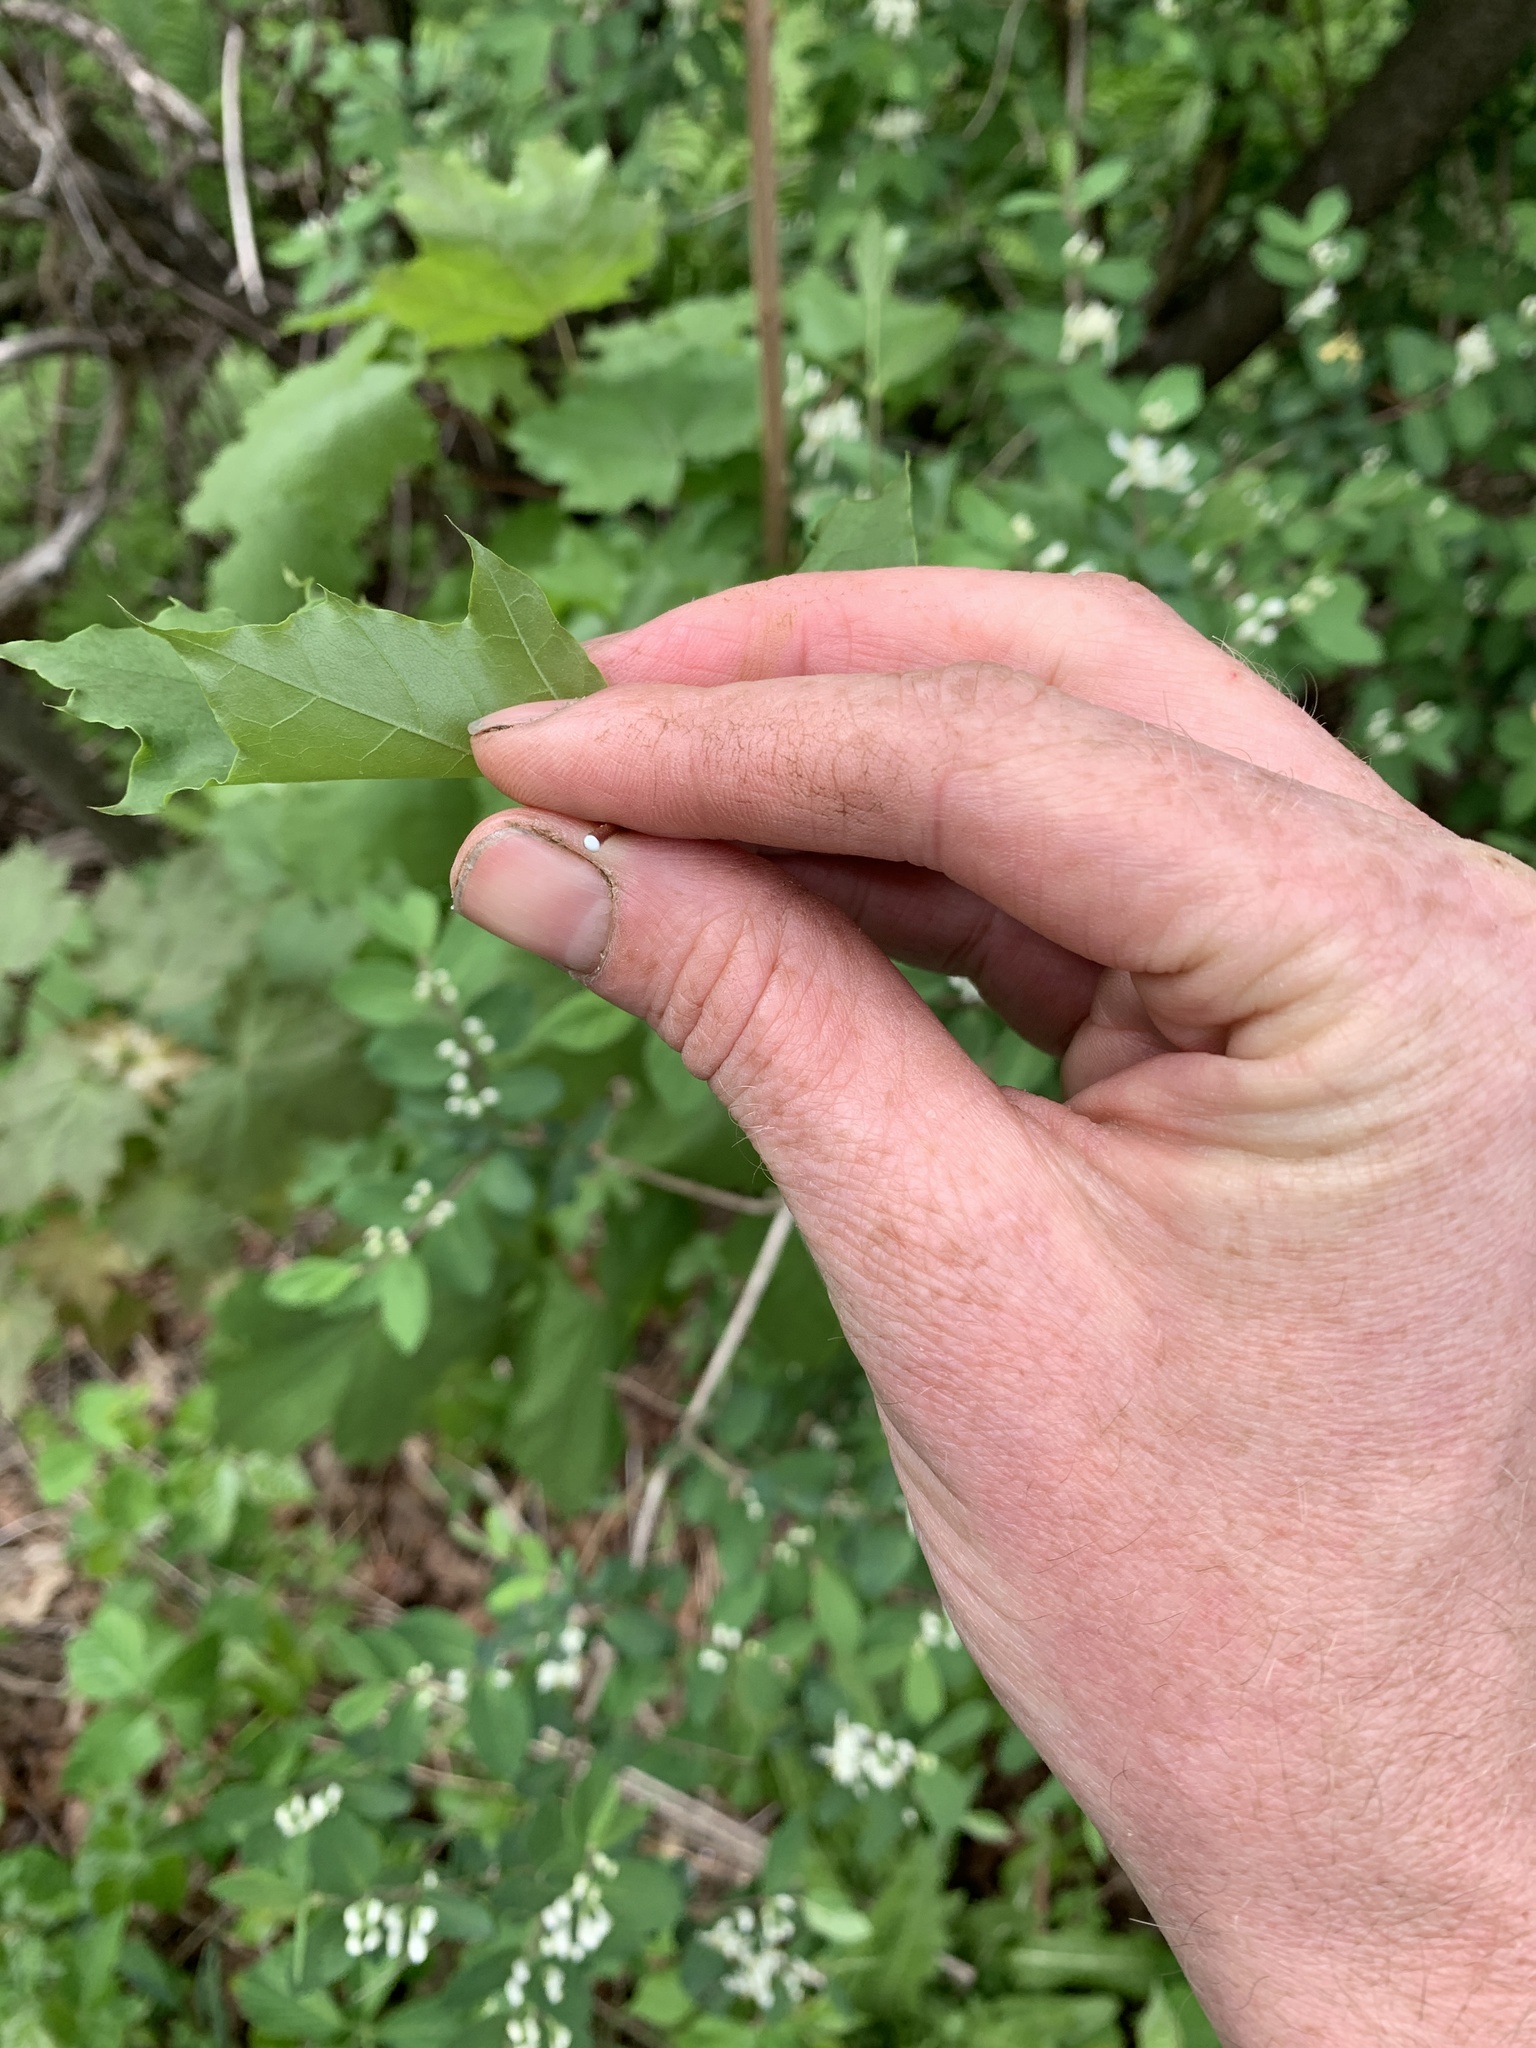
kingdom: Plantae
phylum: Tracheophyta
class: Magnoliopsida
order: Sapindales
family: Sapindaceae
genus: Acer
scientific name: Acer platanoides
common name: Norway maple
